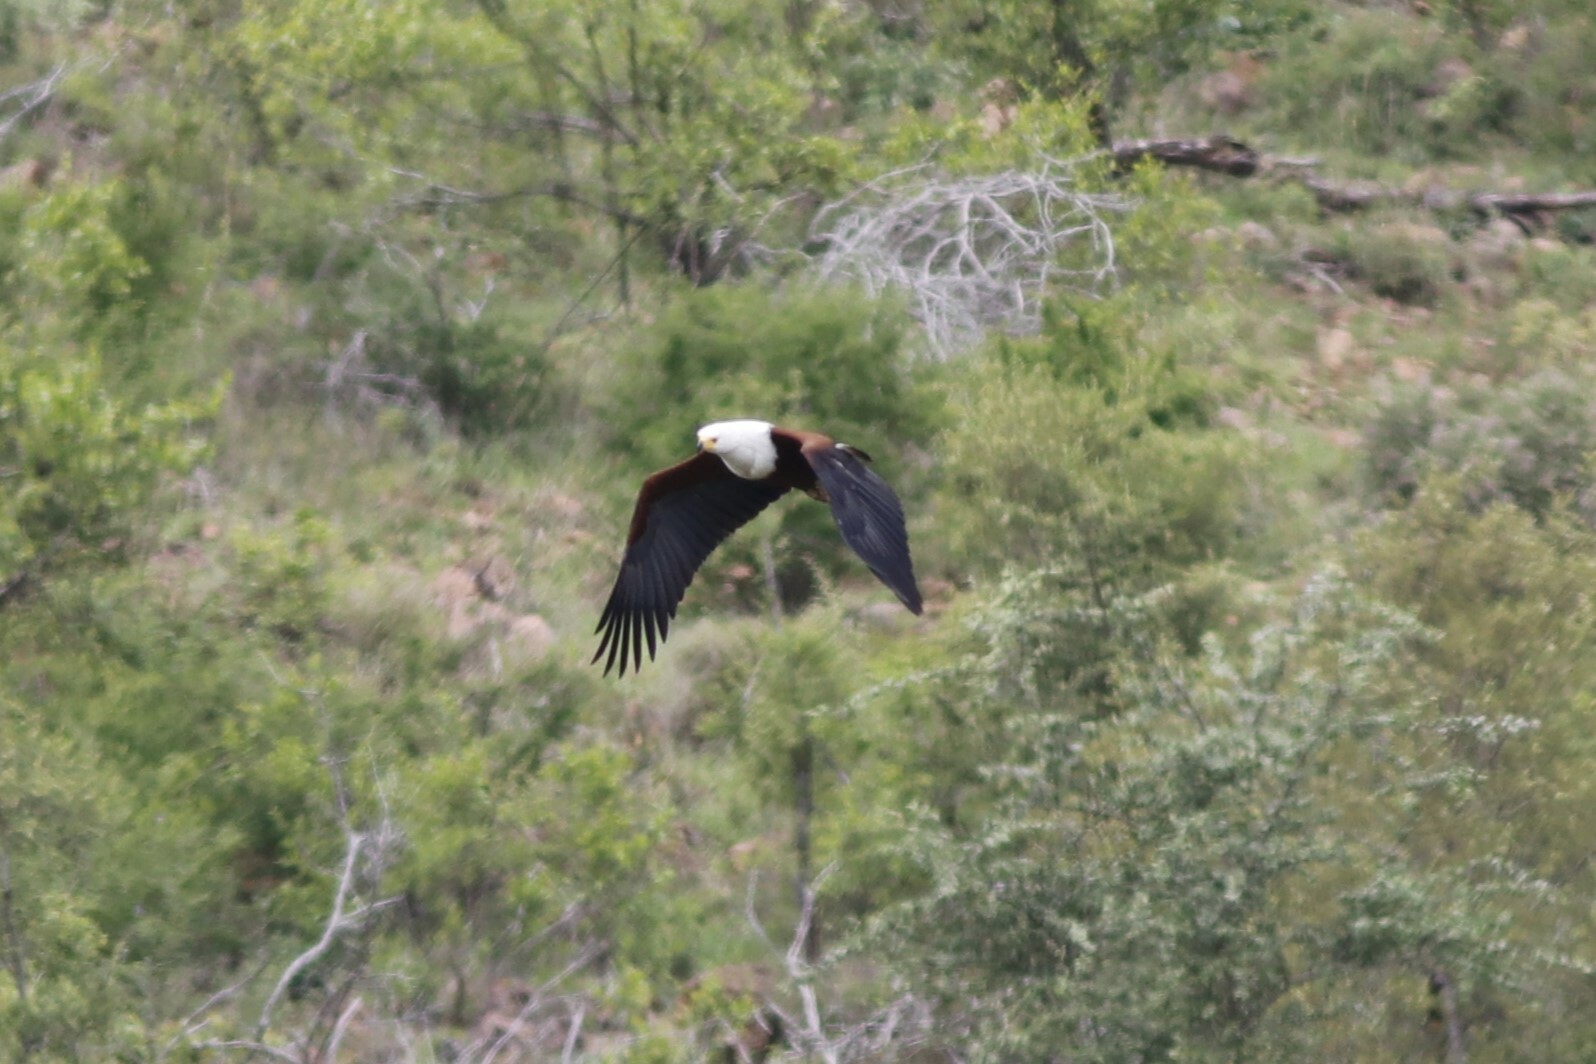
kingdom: Animalia
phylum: Chordata
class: Aves
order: Accipitriformes
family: Accipitridae
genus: Haliaeetus
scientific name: Haliaeetus vocifer
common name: African fish eagle
